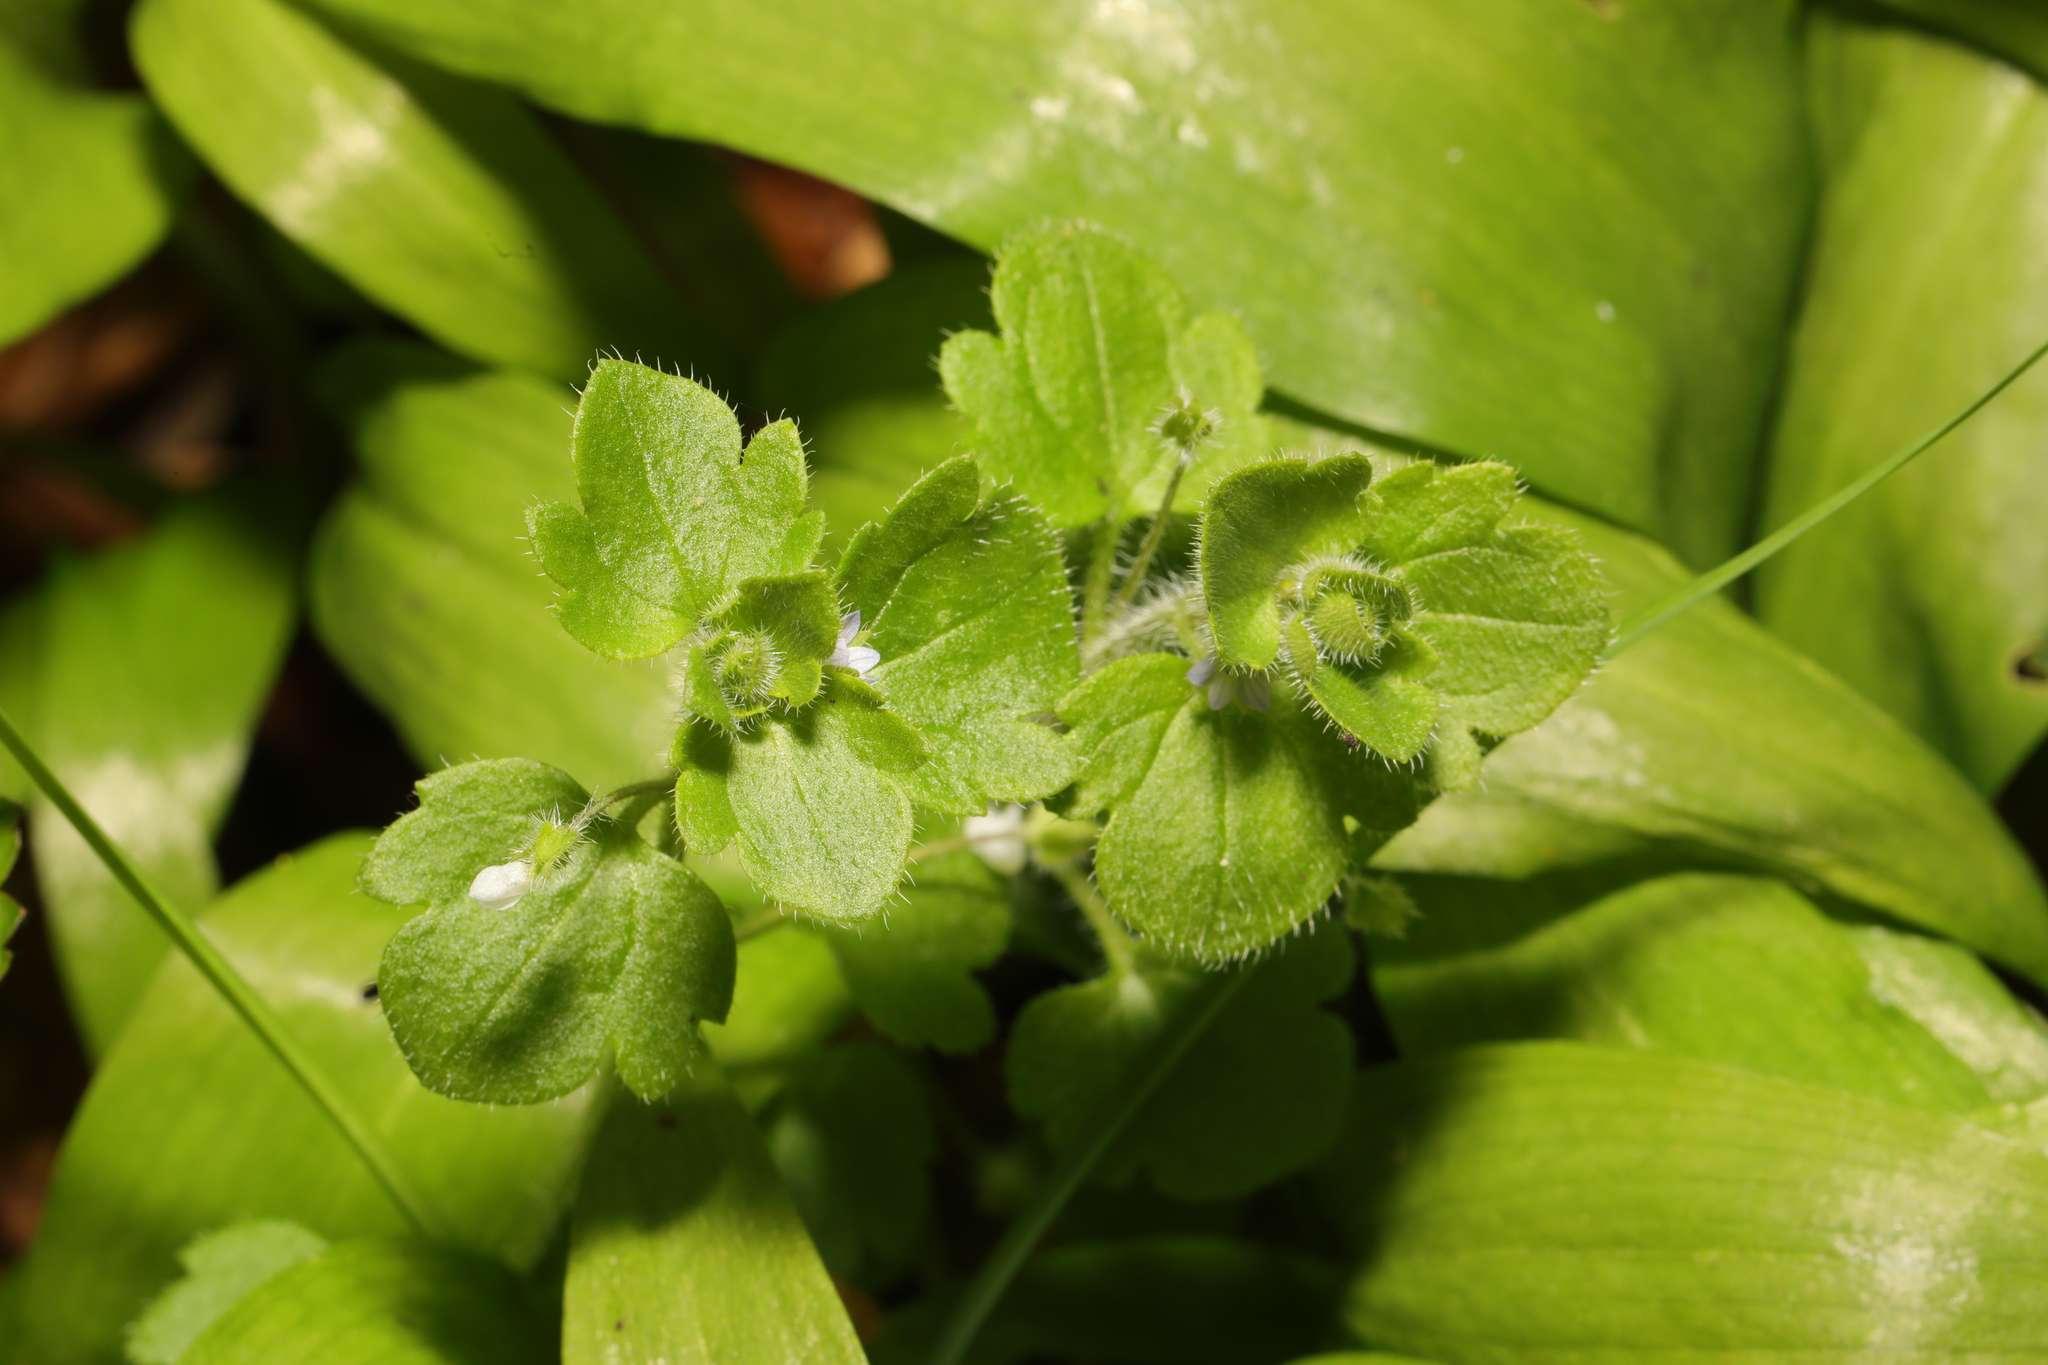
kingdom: Plantae
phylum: Tracheophyta
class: Magnoliopsida
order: Lamiales
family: Plantaginaceae
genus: Veronica
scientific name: Veronica sublobata
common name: False ivy-leaved speedwell
